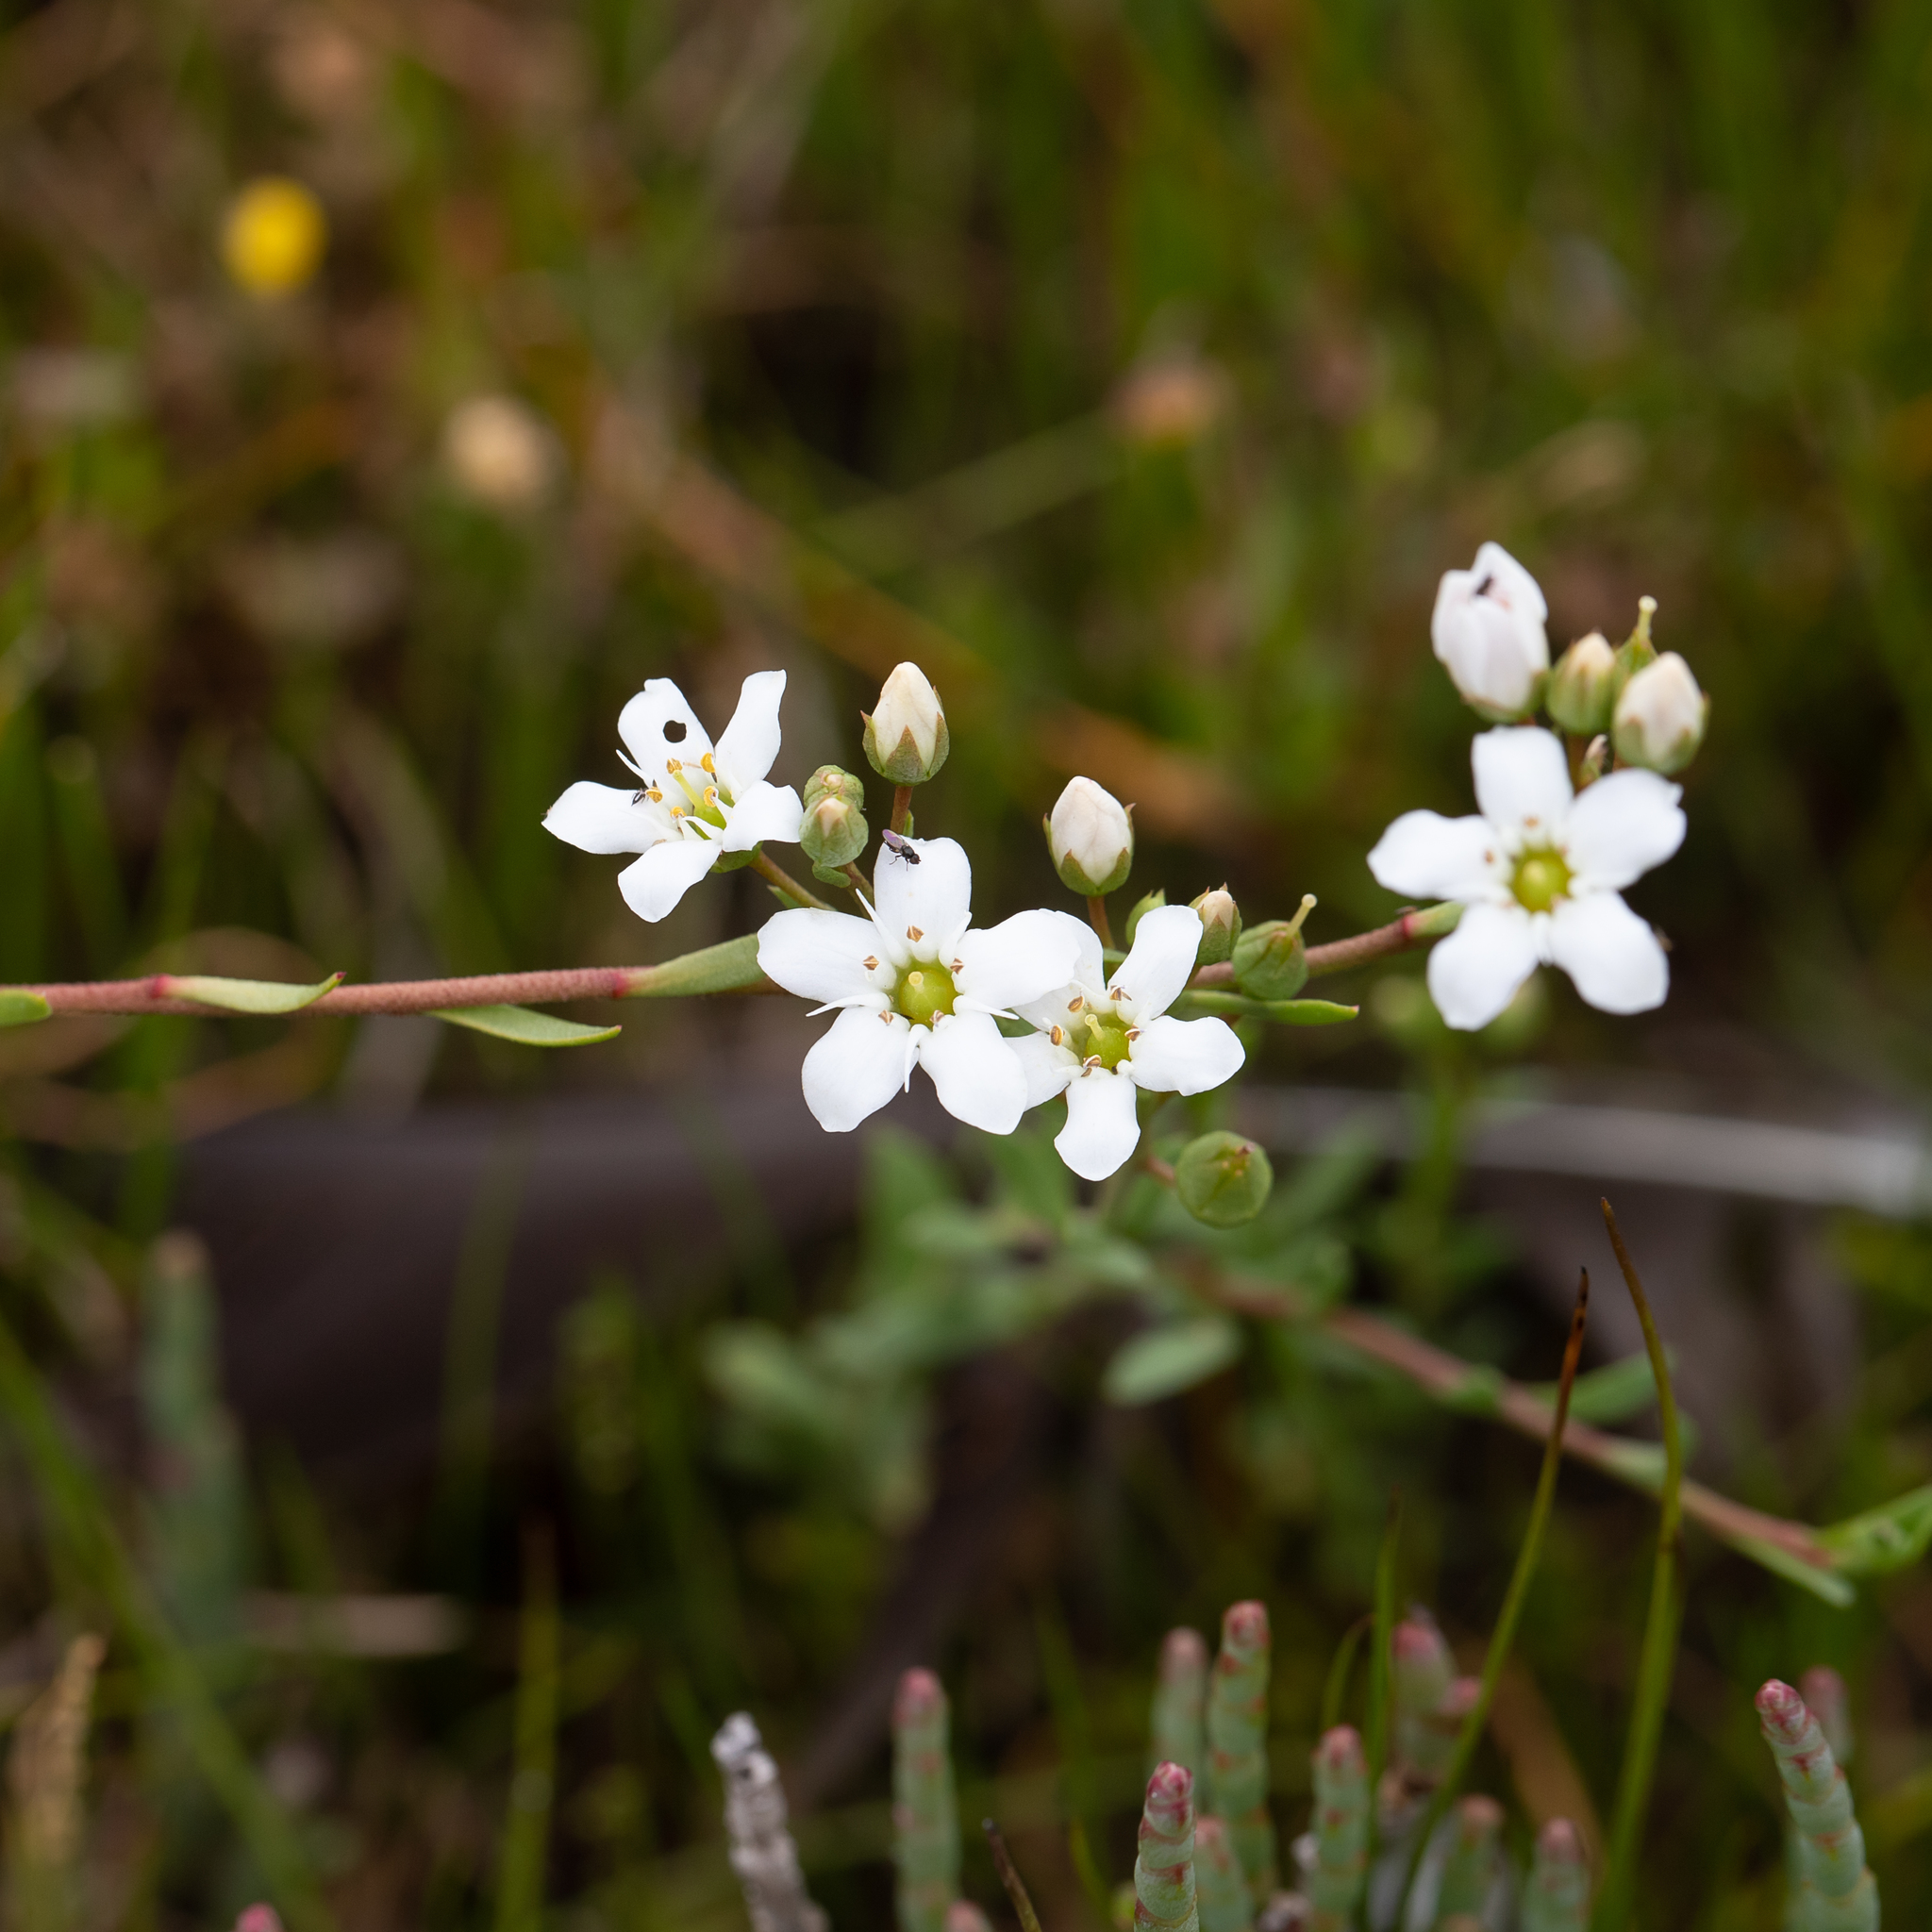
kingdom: Plantae
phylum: Tracheophyta
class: Magnoliopsida
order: Ericales
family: Primulaceae
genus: Samolus
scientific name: Samolus repens
